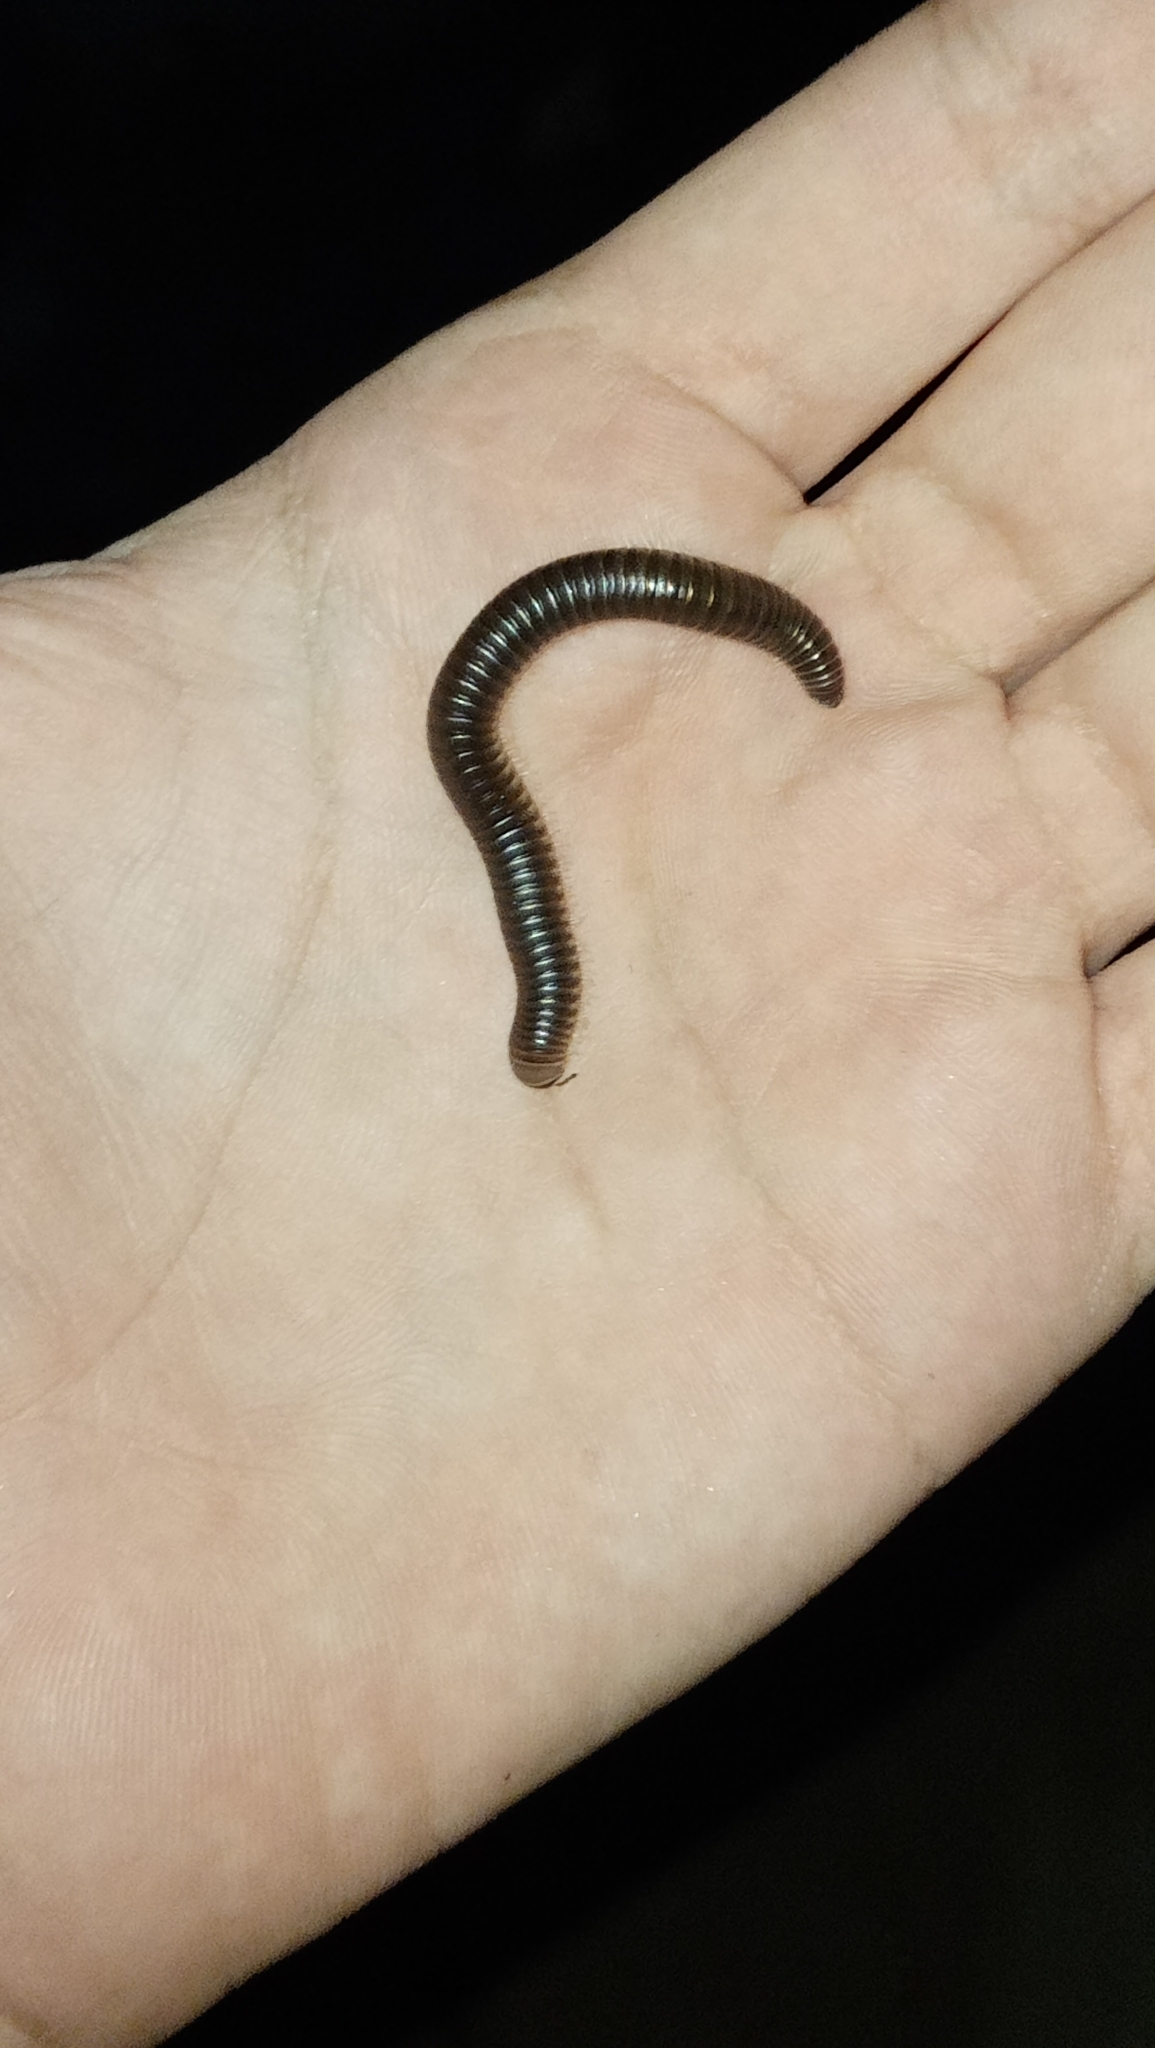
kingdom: Animalia
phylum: Arthropoda
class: Diplopoda
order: Julida
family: Julidae
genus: Pachyiulus
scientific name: Pachyiulus flavipes
